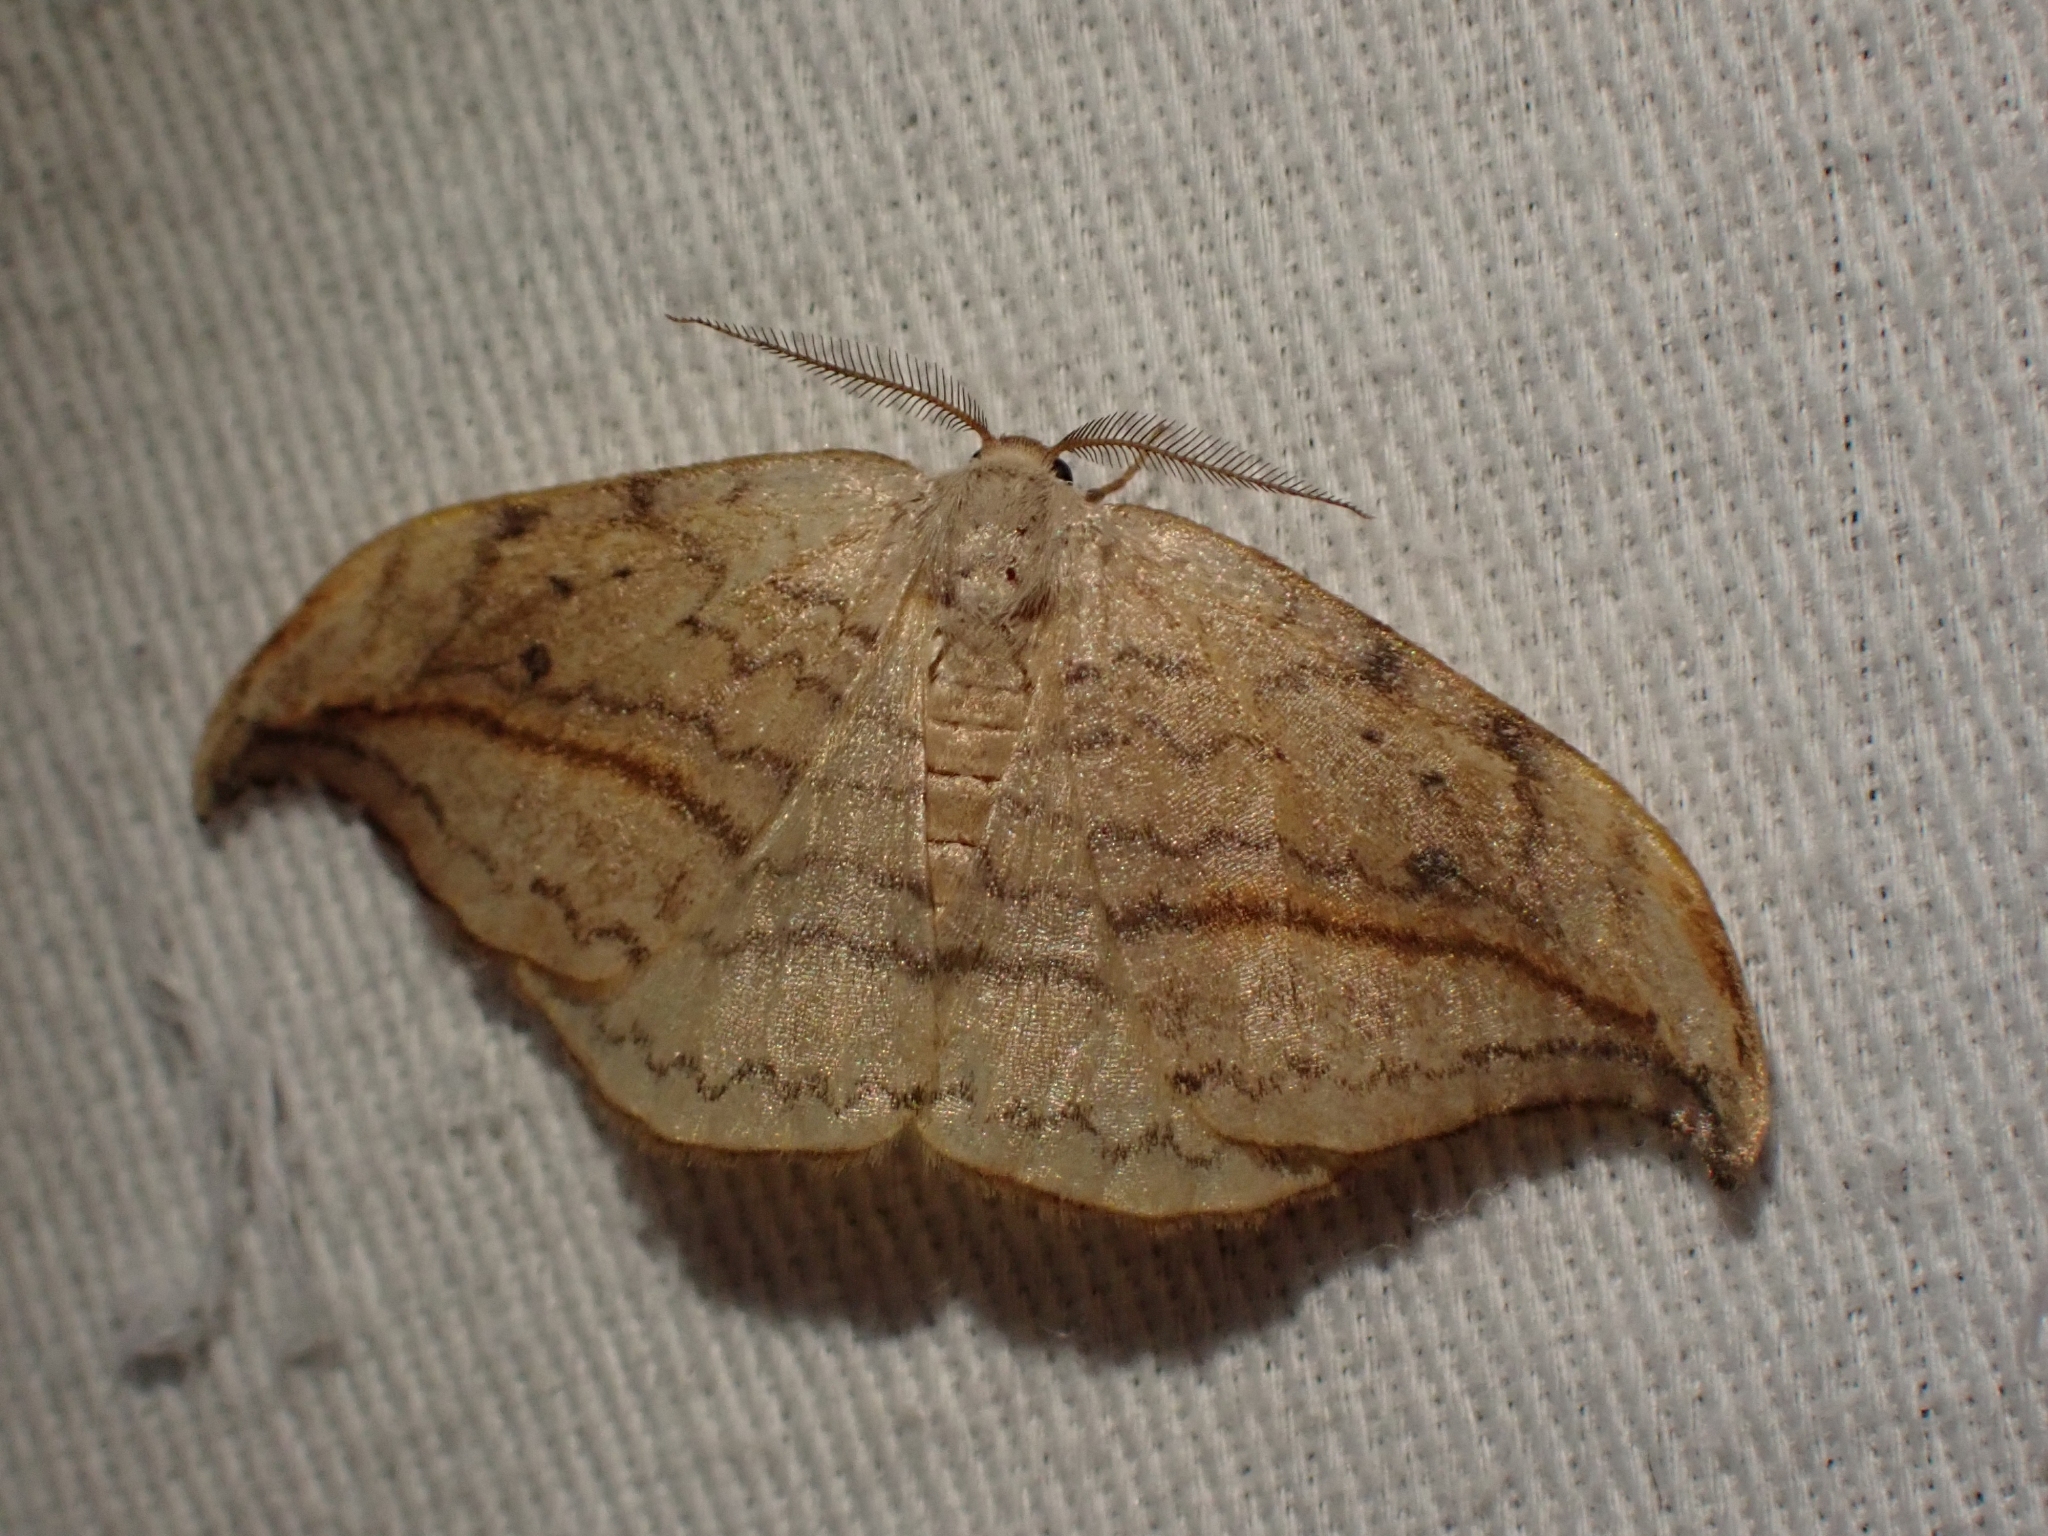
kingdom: Animalia
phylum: Arthropoda
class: Insecta
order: Lepidoptera
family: Drepanidae
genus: Drepana
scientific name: Drepana arcuata
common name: Arched hooktip moth
